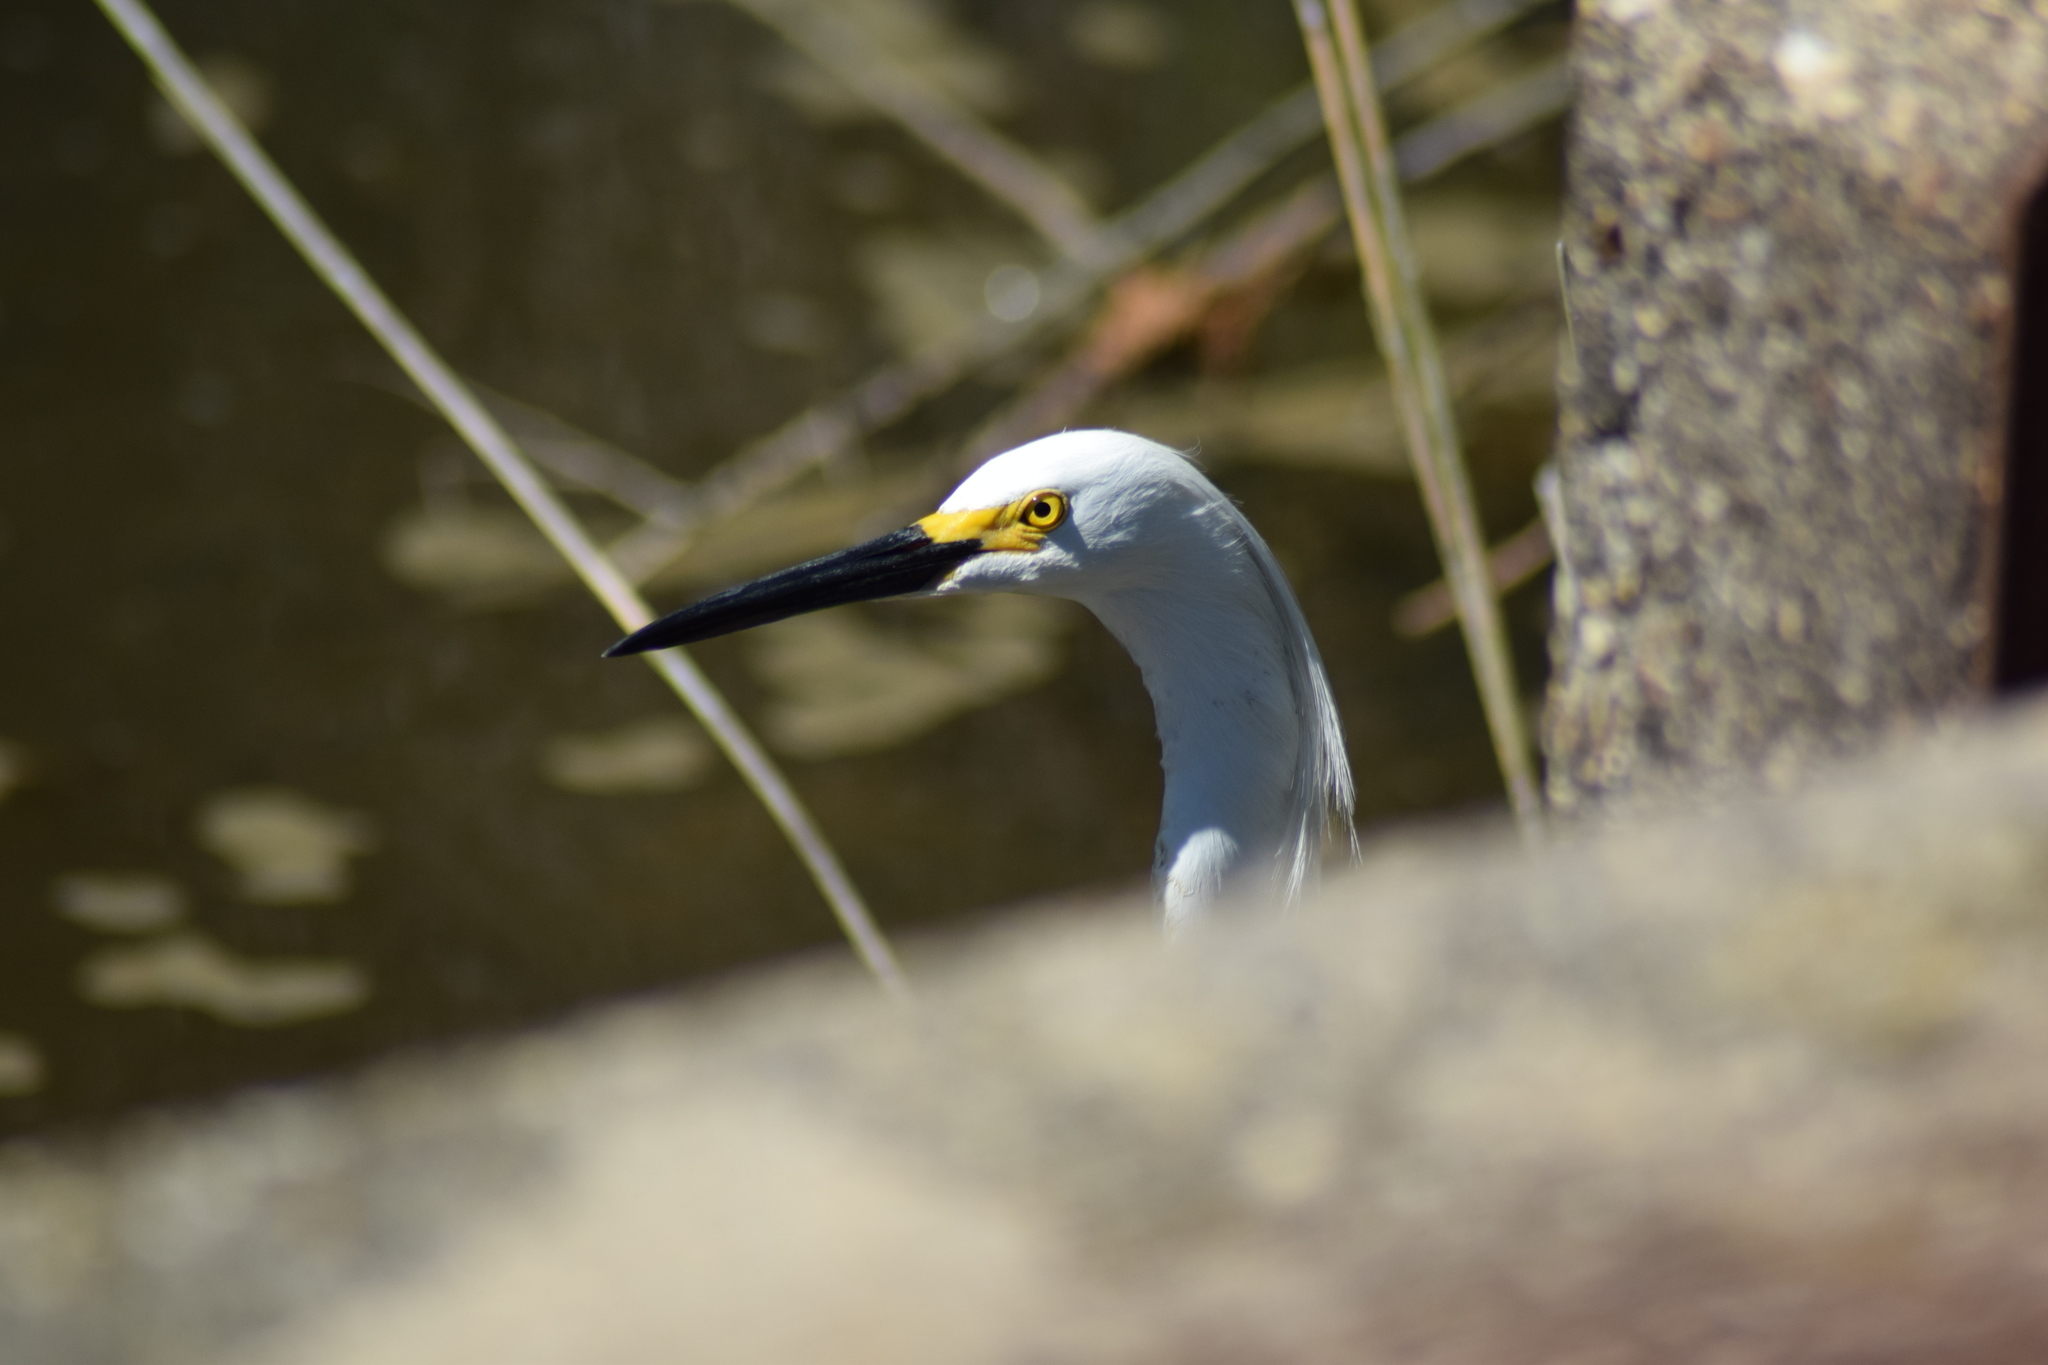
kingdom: Animalia
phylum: Chordata
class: Aves
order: Pelecaniformes
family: Ardeidae
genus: Egretta
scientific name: Egretta thula
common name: Snowy egret
